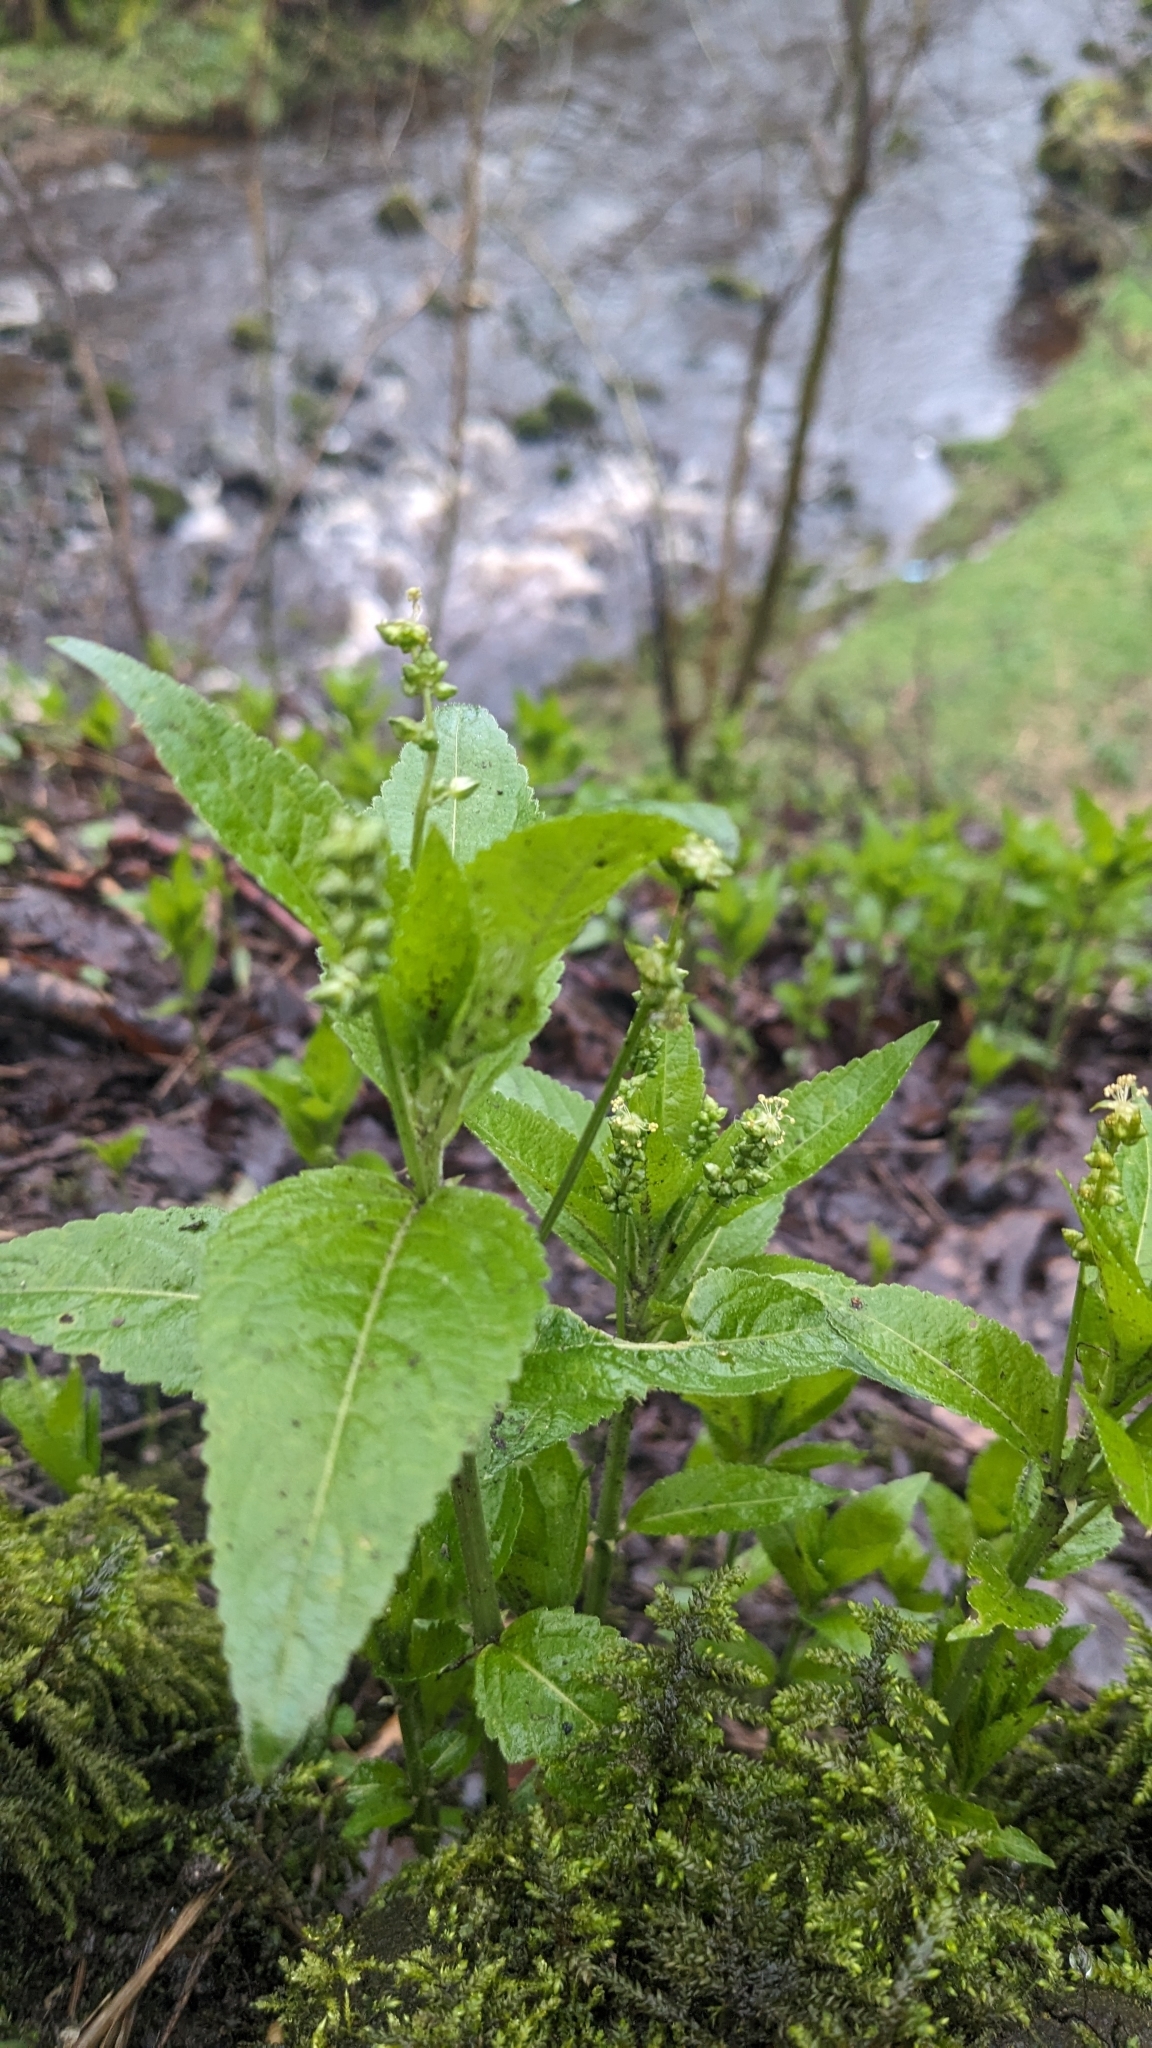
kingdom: Plantae
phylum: Tracheophyta
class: Magnoliopsida
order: Malpighiales
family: Euphorbiaceae
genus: Mercurialis
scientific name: Mercurialis perennis
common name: Dog mercury
